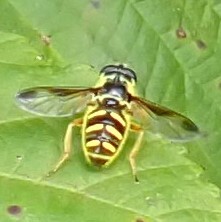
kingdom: Animalia
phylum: Arthropoda
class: Insecta
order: Diptera
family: Syrphidae
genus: Sericomyia
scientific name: Sericomyia chrysotoxoides
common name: Oblique-banded pond fly
